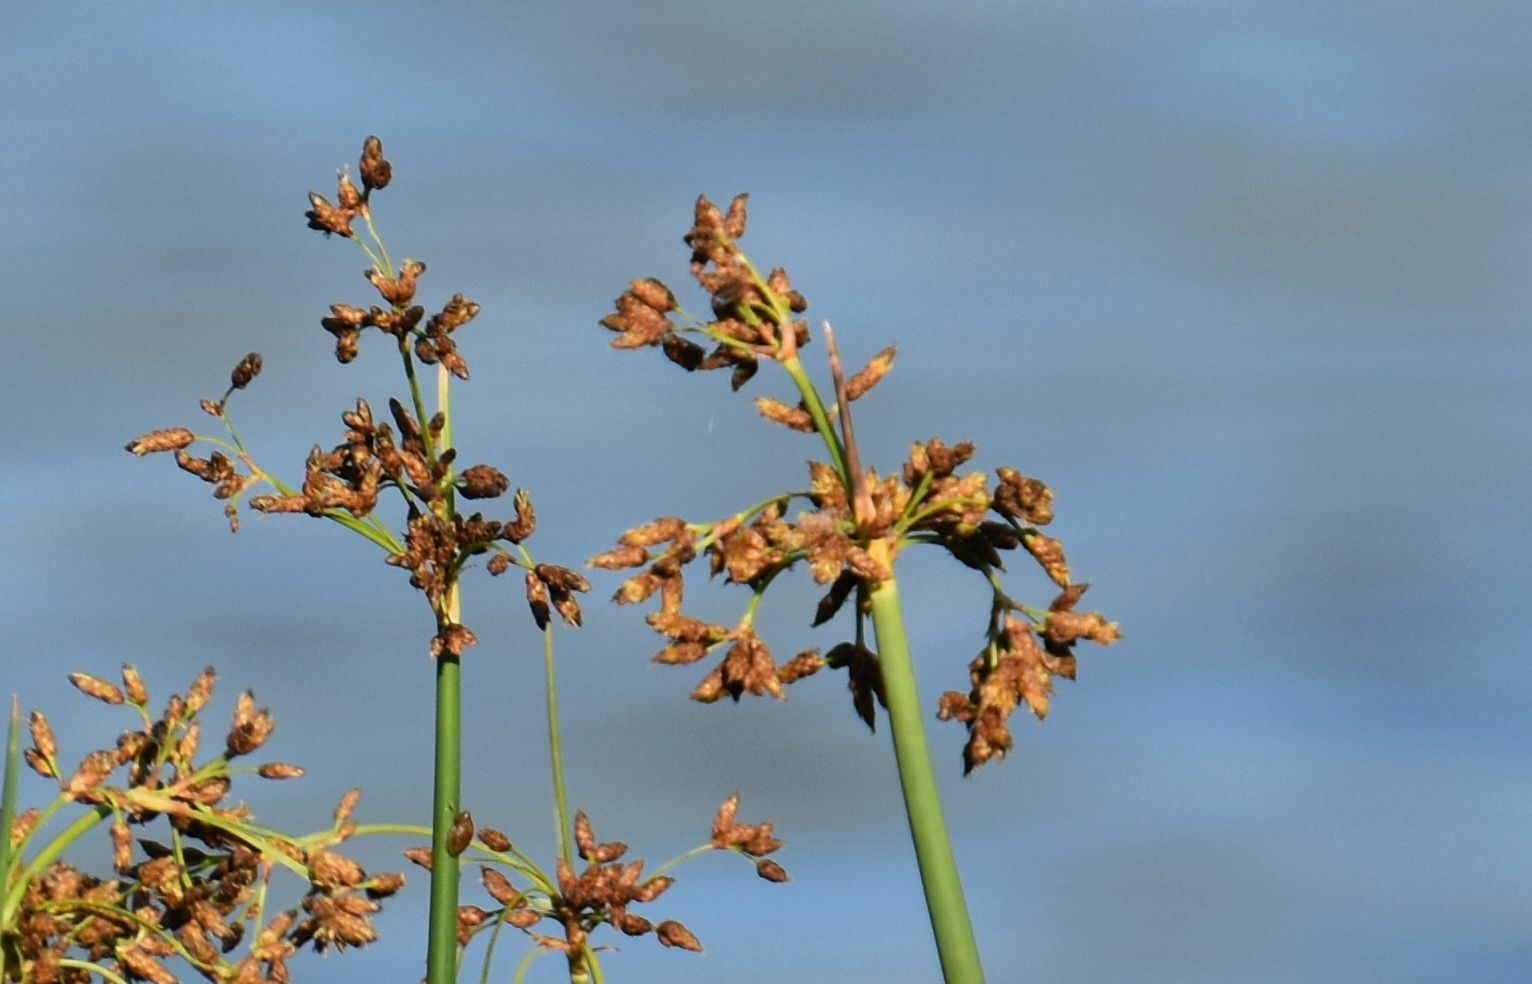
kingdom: Plantae
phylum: Tracheophyta
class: Liliopsida
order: Poales
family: Cyperaceae
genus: Schoenoplectus
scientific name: Schoenoplectus tabernaemontani
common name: Grey club-rush
